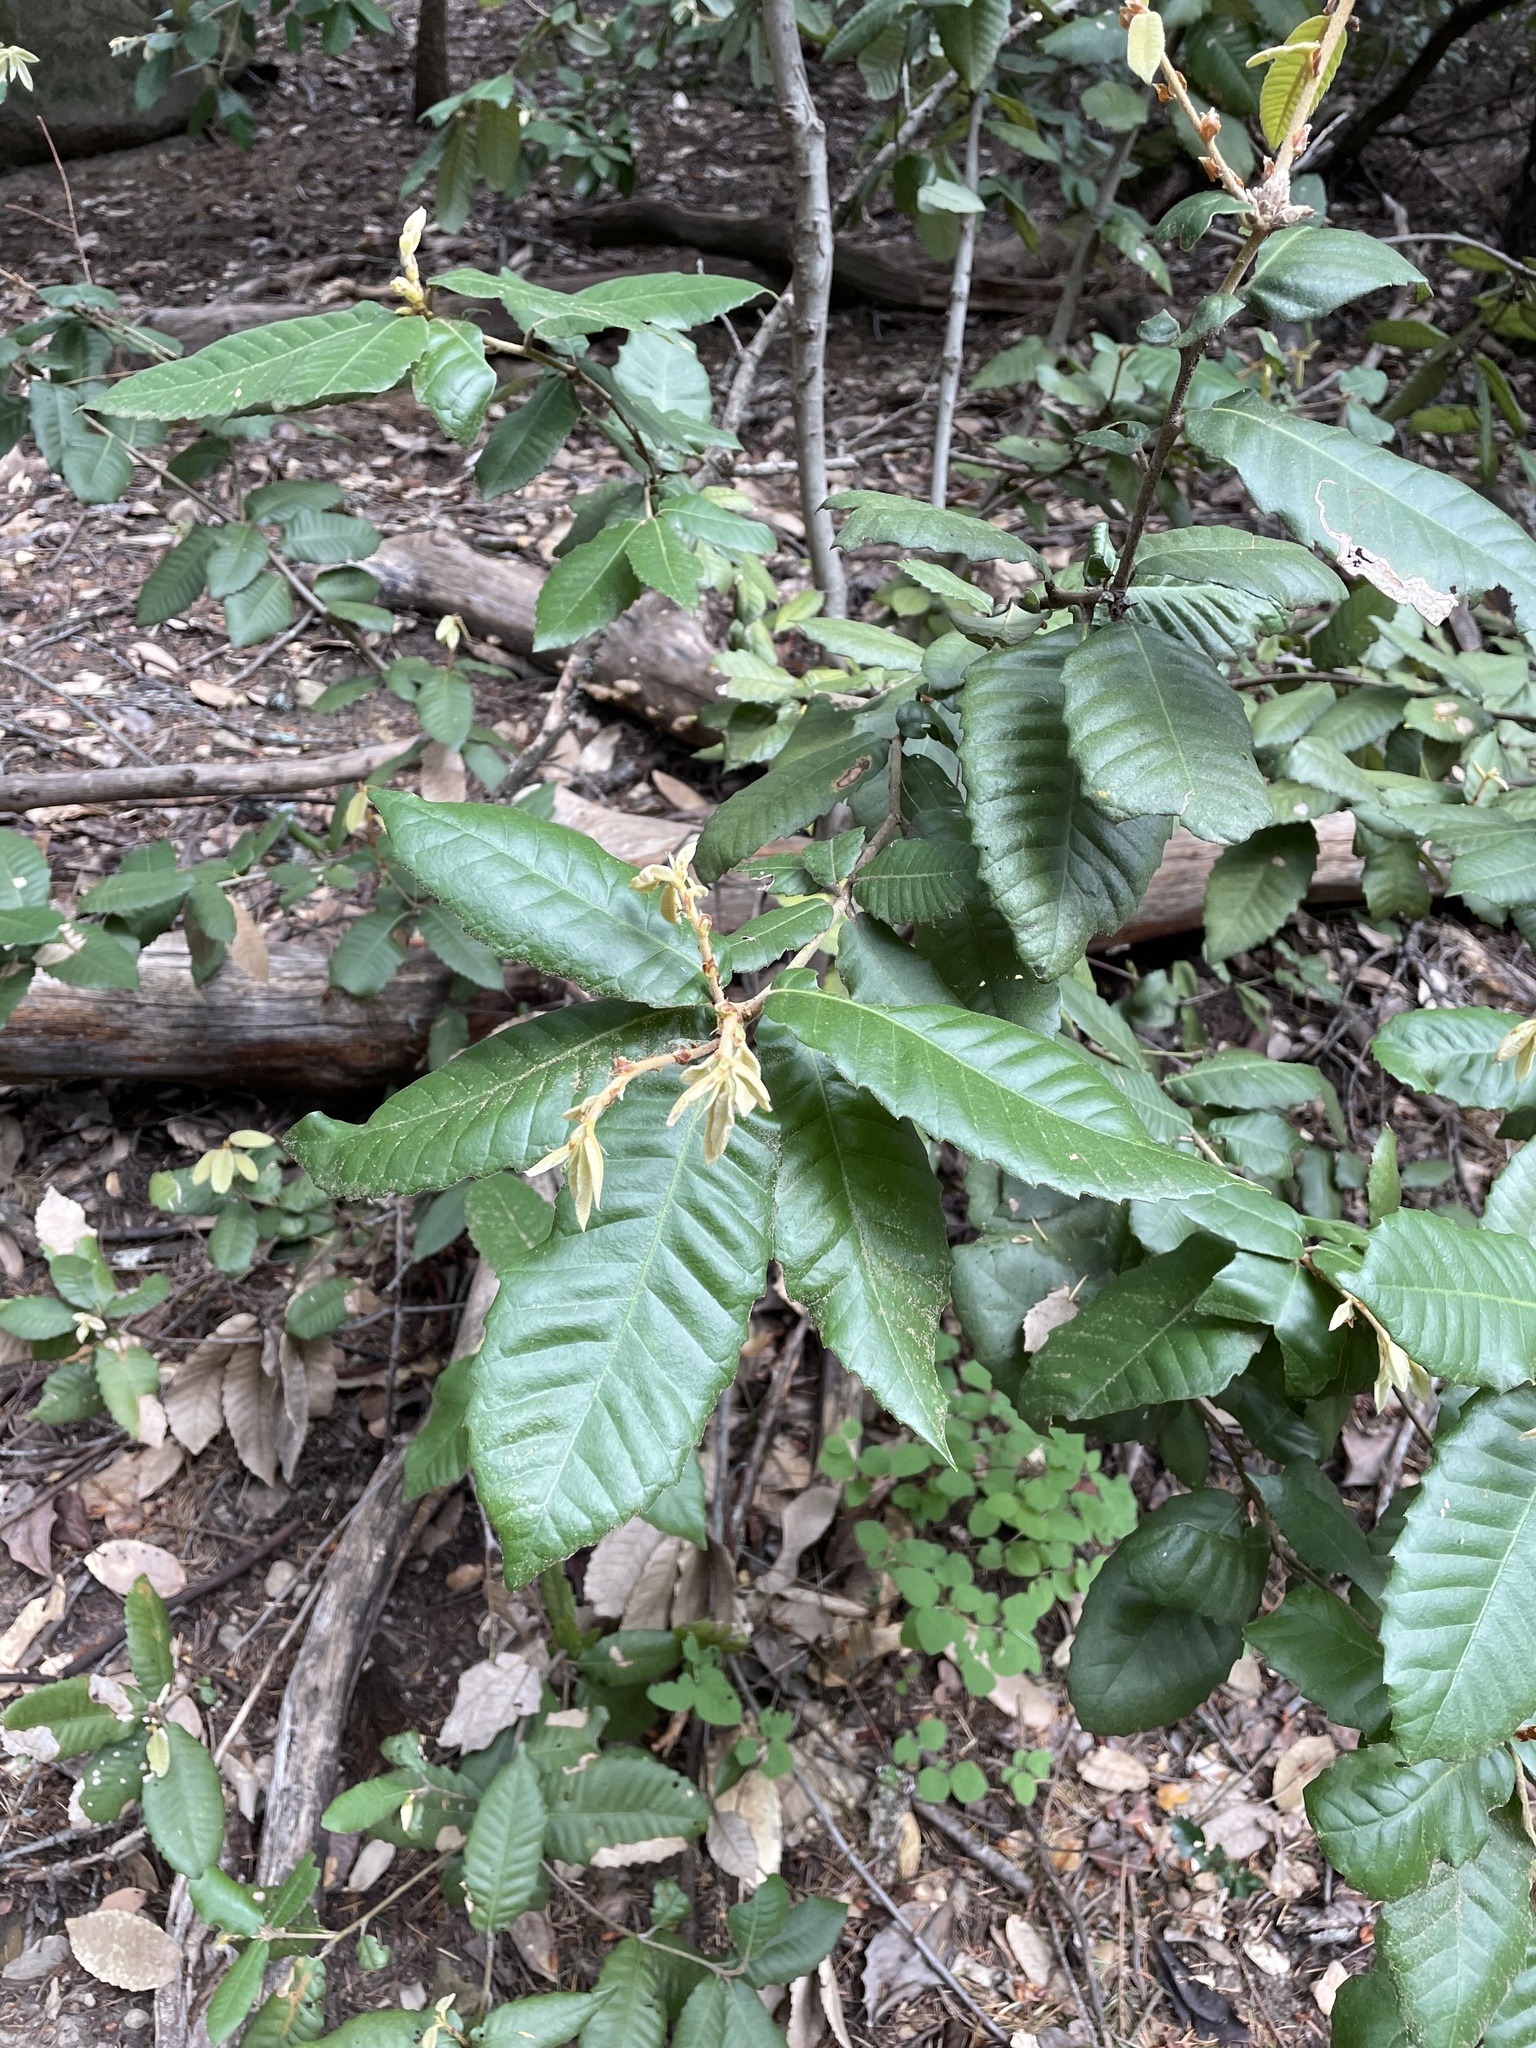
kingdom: Plantae
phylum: Tracheophyta
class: Magnoliopsida
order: Fagales
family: Fagaceae
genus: Notholithocarpus
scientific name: Notholithocarpus densiflorus
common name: Tan bark oak
